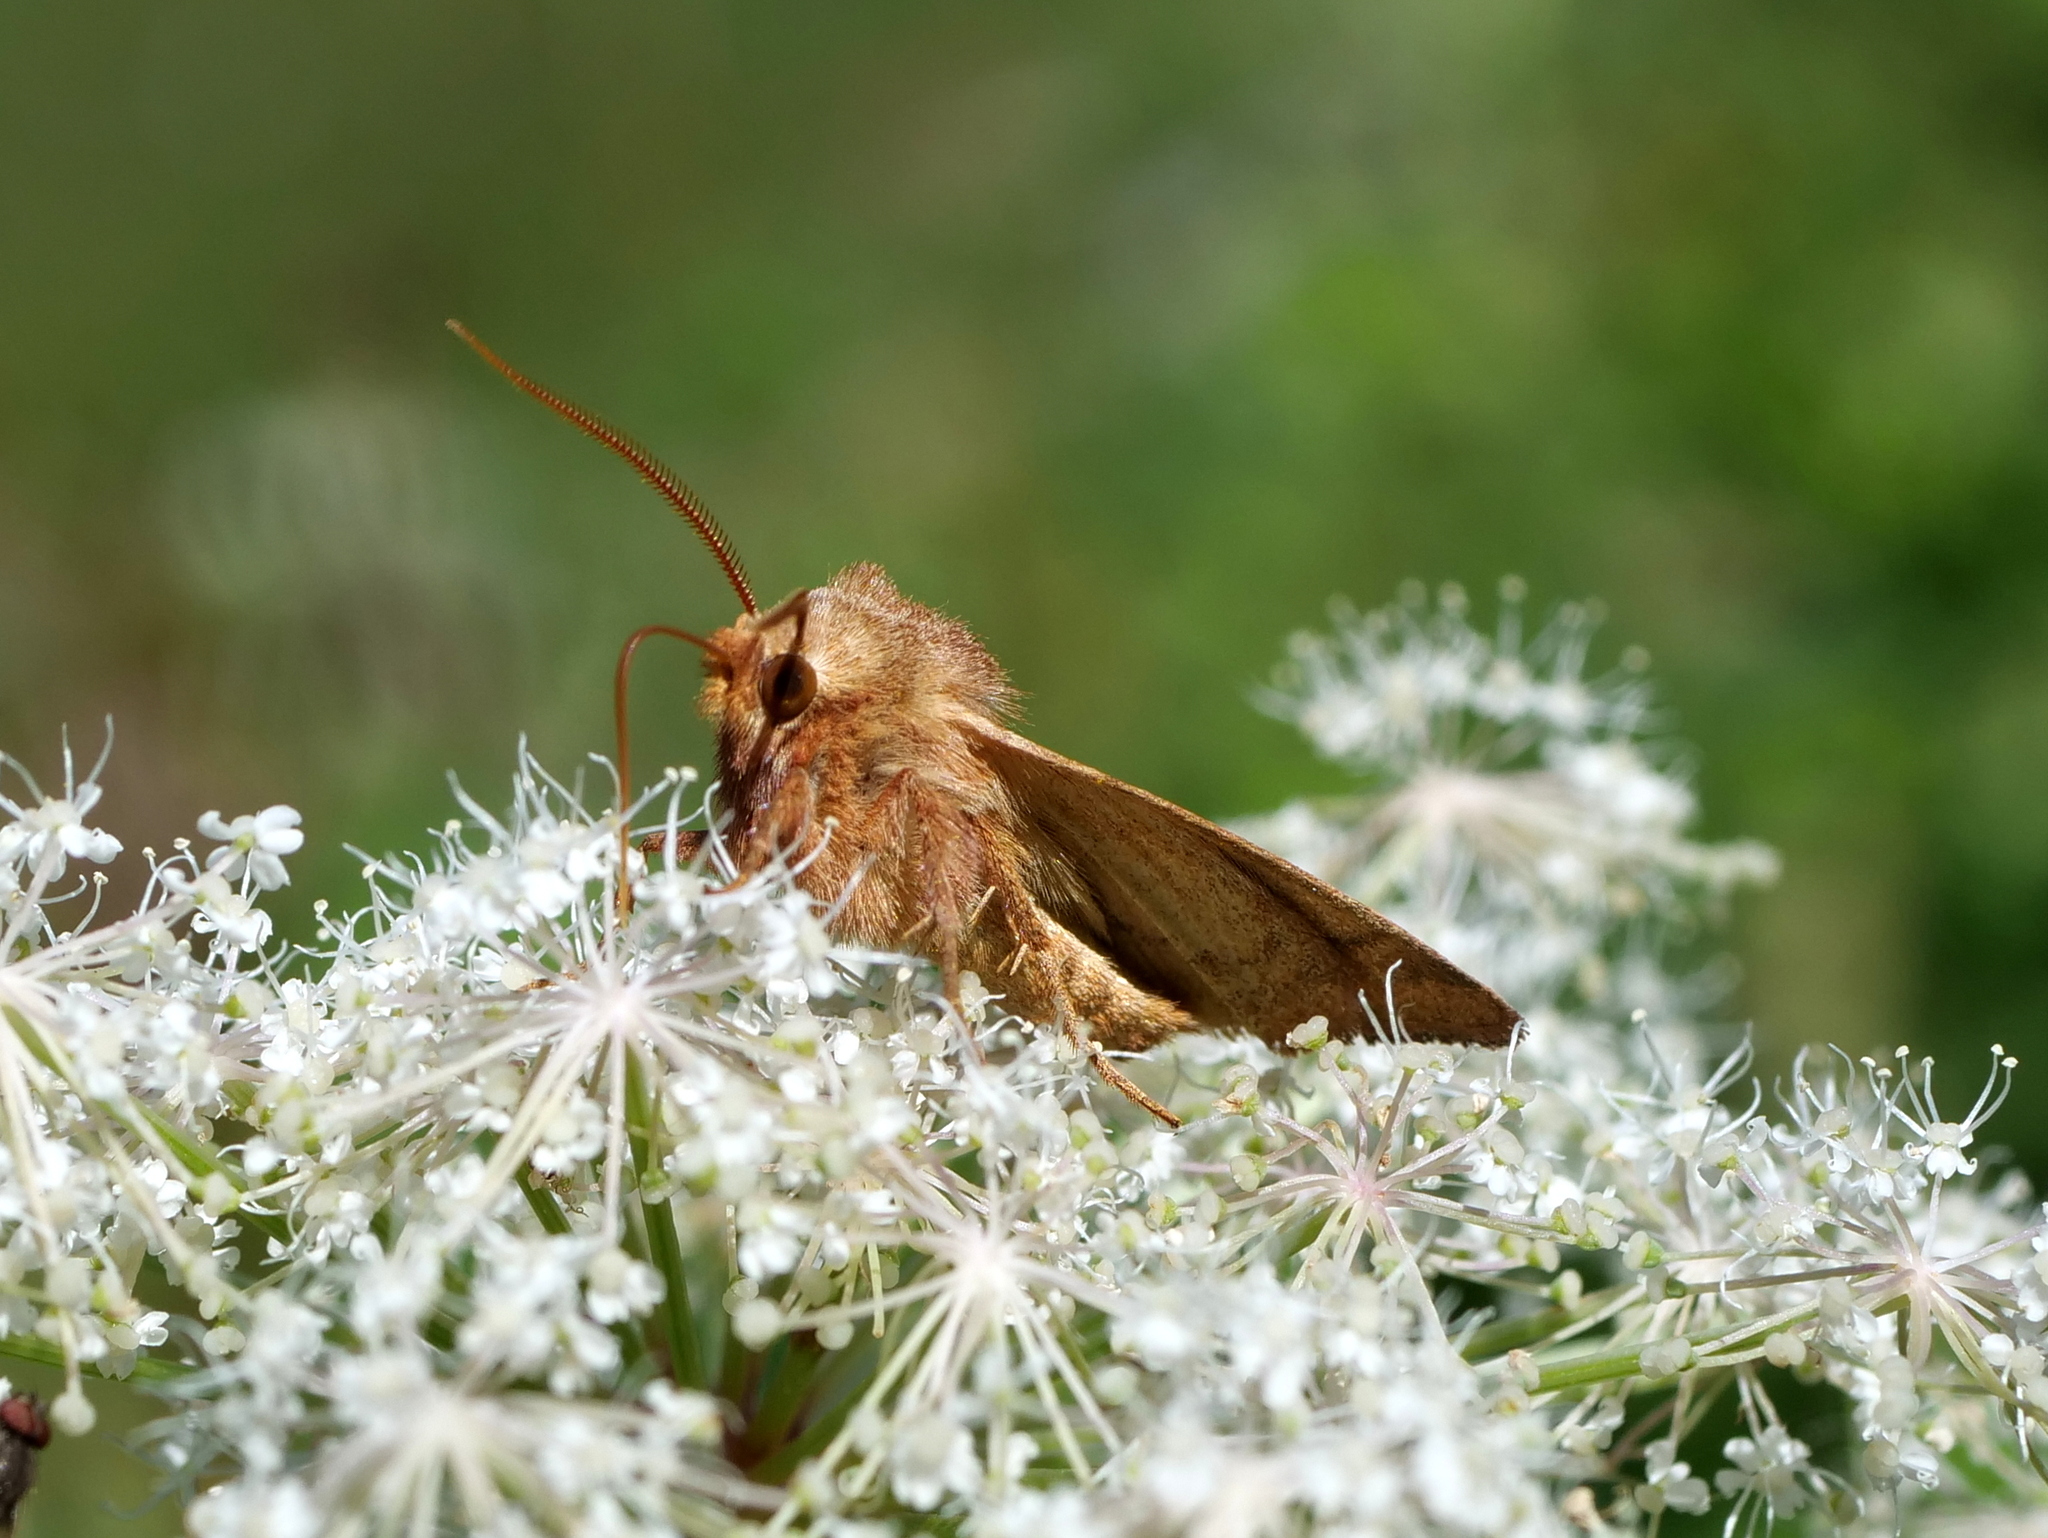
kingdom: Animalia
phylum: Arthropoda
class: Insecta
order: Lepidoptera
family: Noctuidae
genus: Xestia
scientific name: Xestia ochreago
